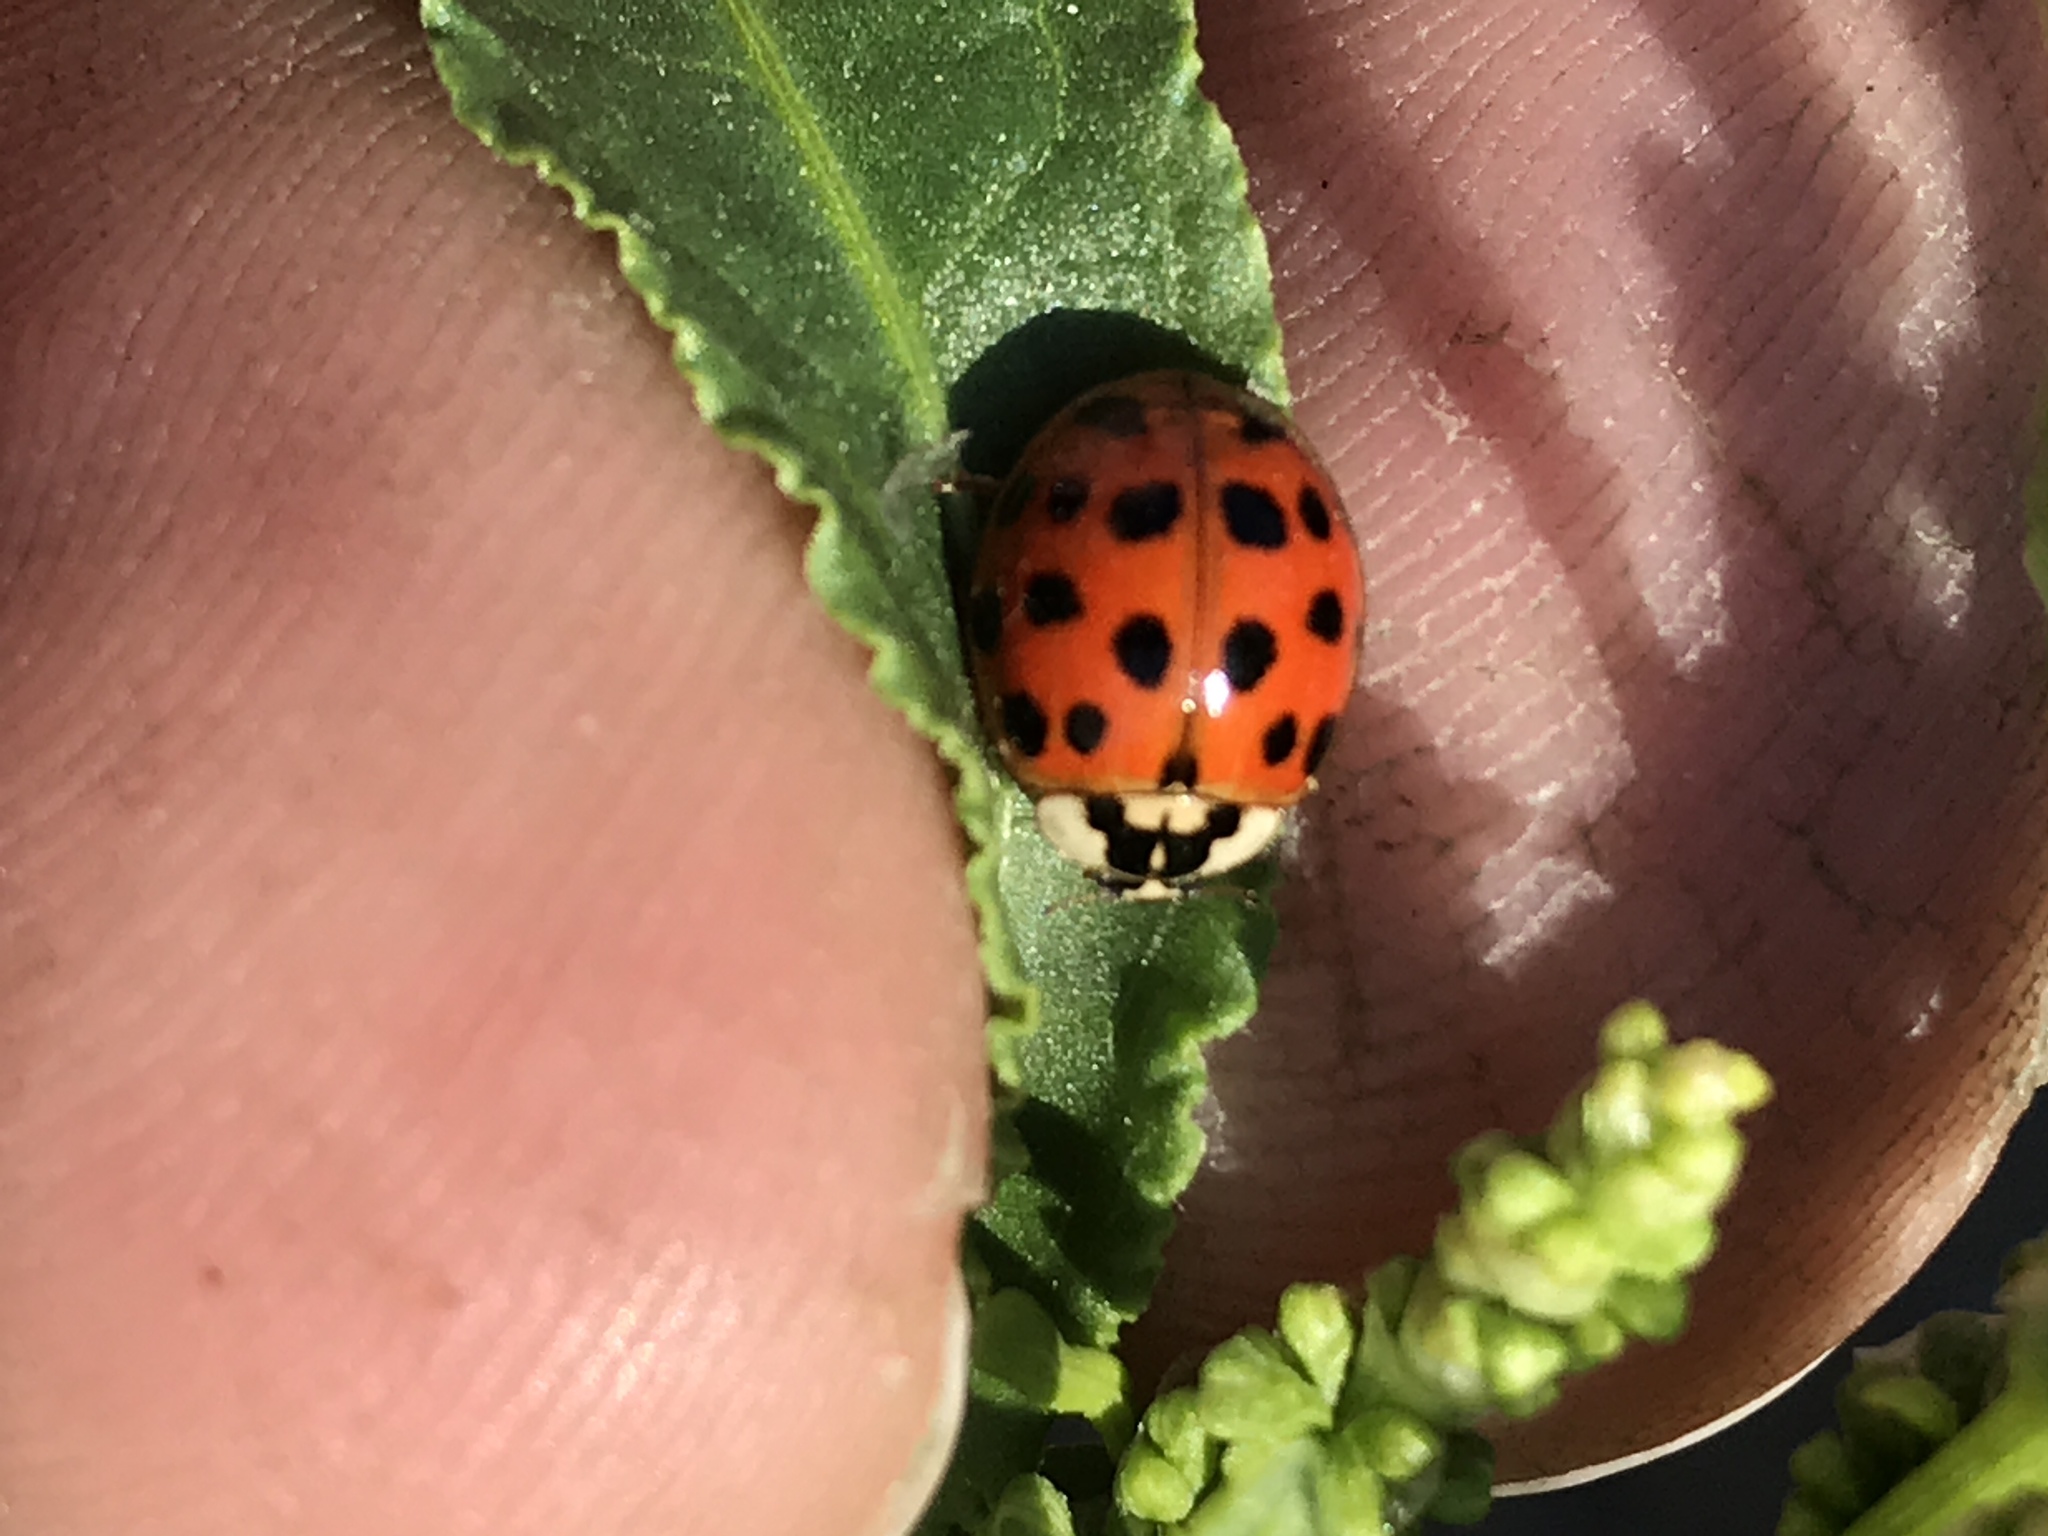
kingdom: Animalia
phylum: Arthropoda
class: Insecta
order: Coleoptera
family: Coccinellidae
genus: Harmonia
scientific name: Harmonia axyridis
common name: Harlequin ladybird
